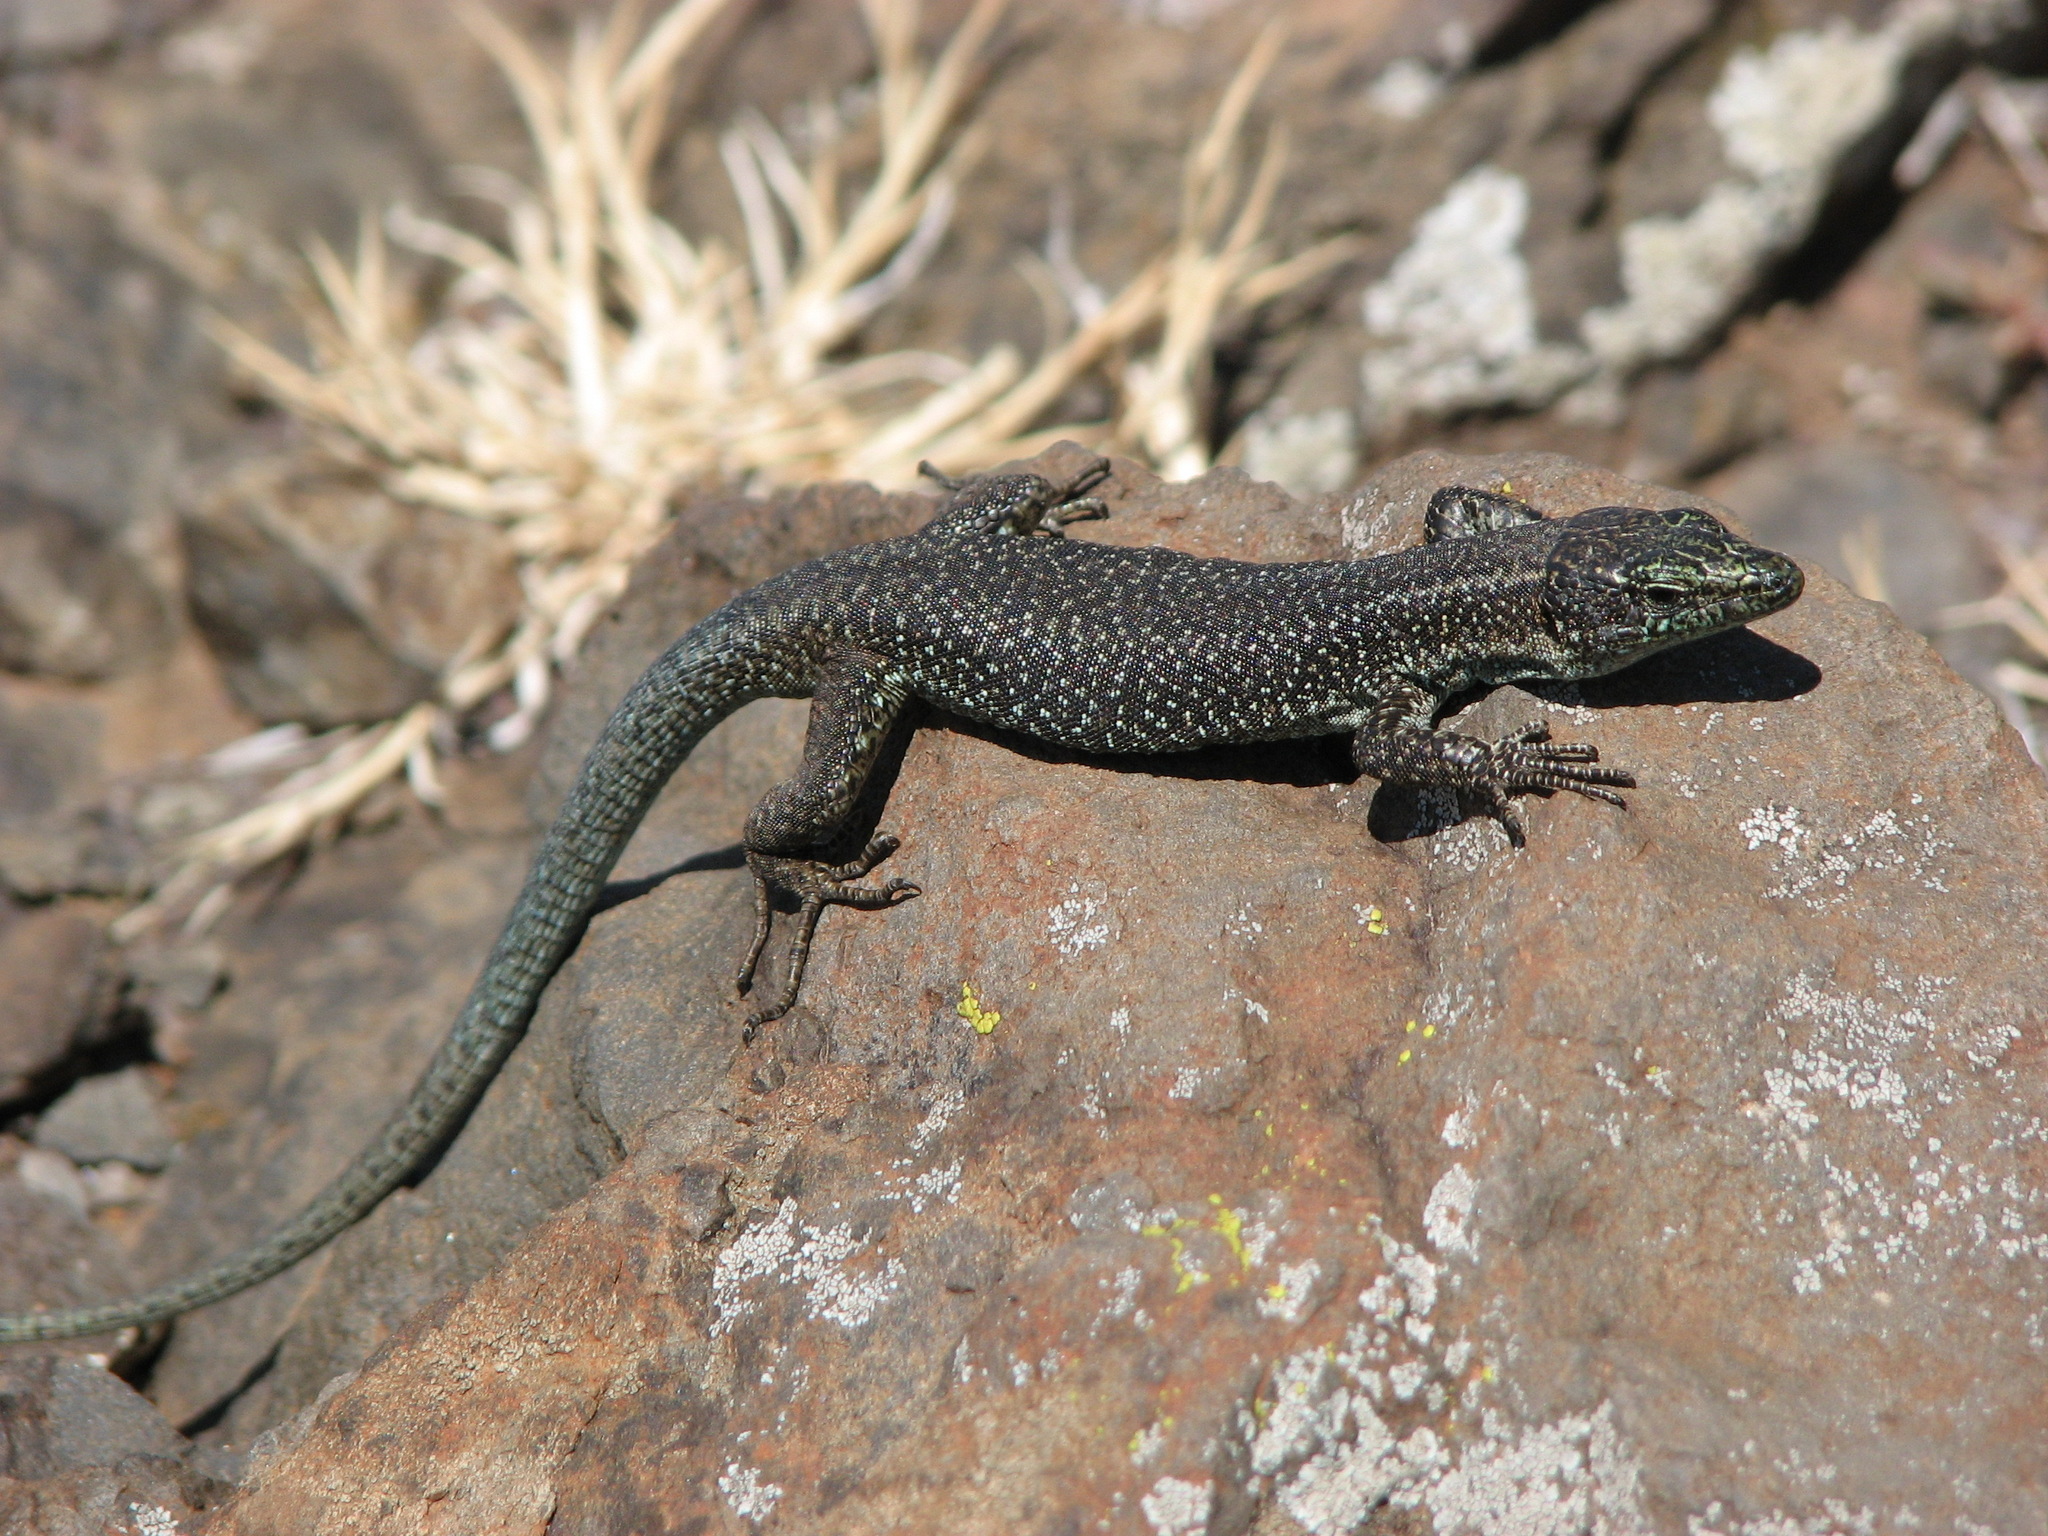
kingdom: Animalia
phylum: Chordata
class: Squamata
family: Lacertidae
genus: Teira
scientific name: Teira dugesii
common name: Madeira lizard
